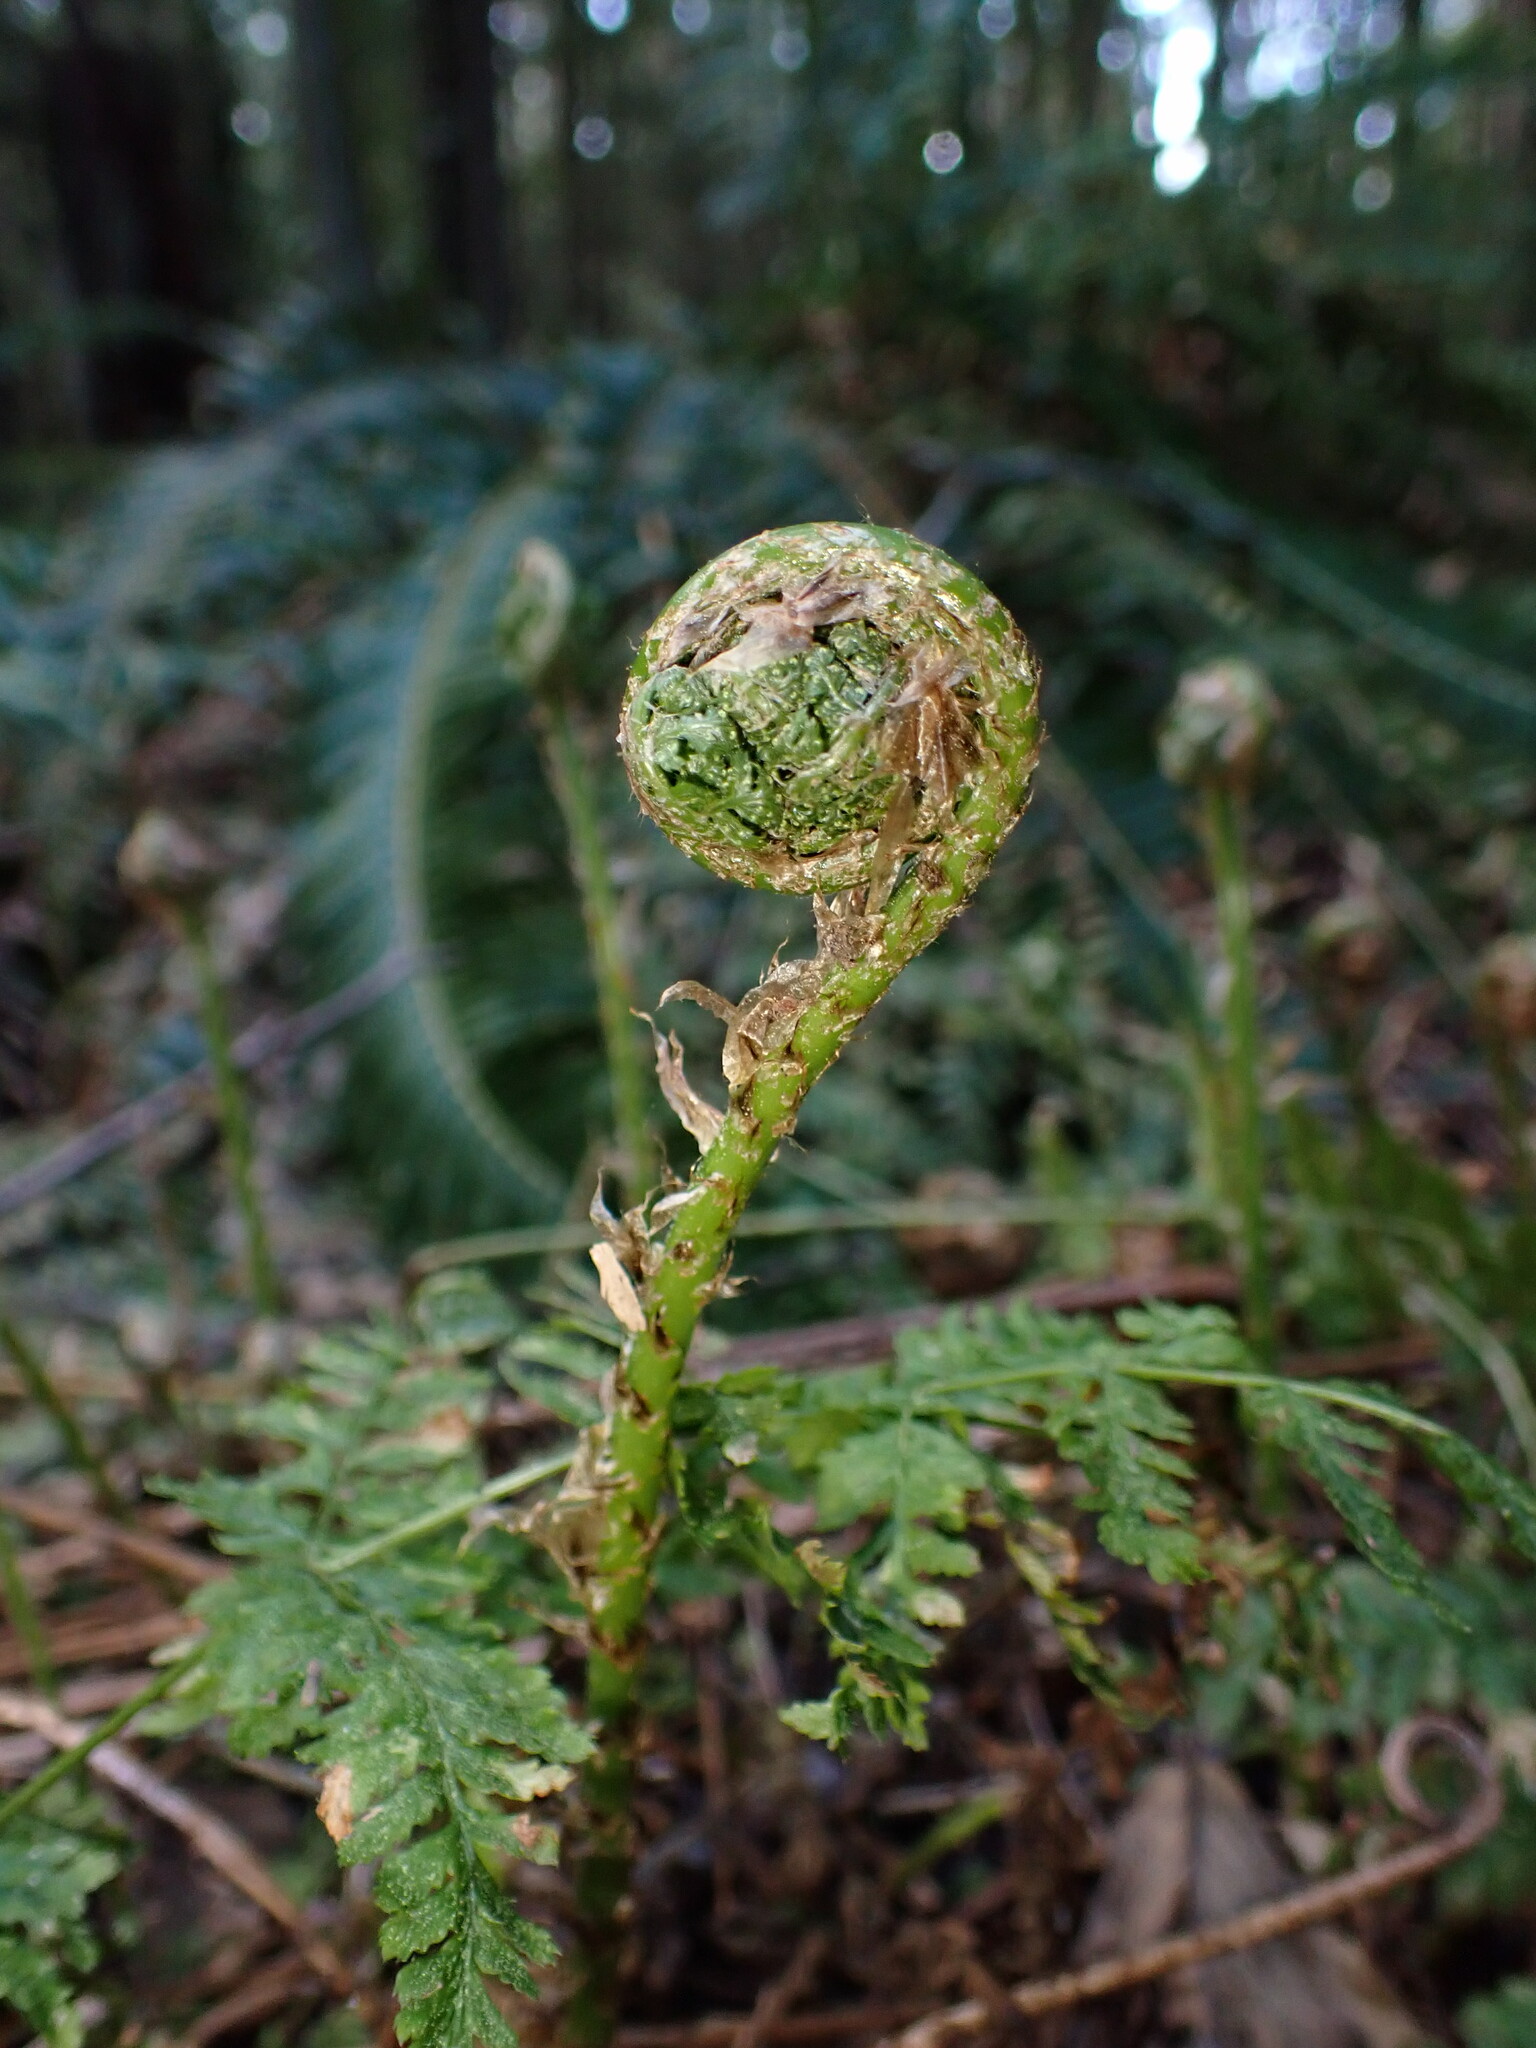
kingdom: Plantae
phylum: Tracheophyta
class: Polypodiopsida
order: Polypodiales
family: Dryopteridaceae
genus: Dryopteris
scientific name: Dryopteris expansa
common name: Northern buckler fern
